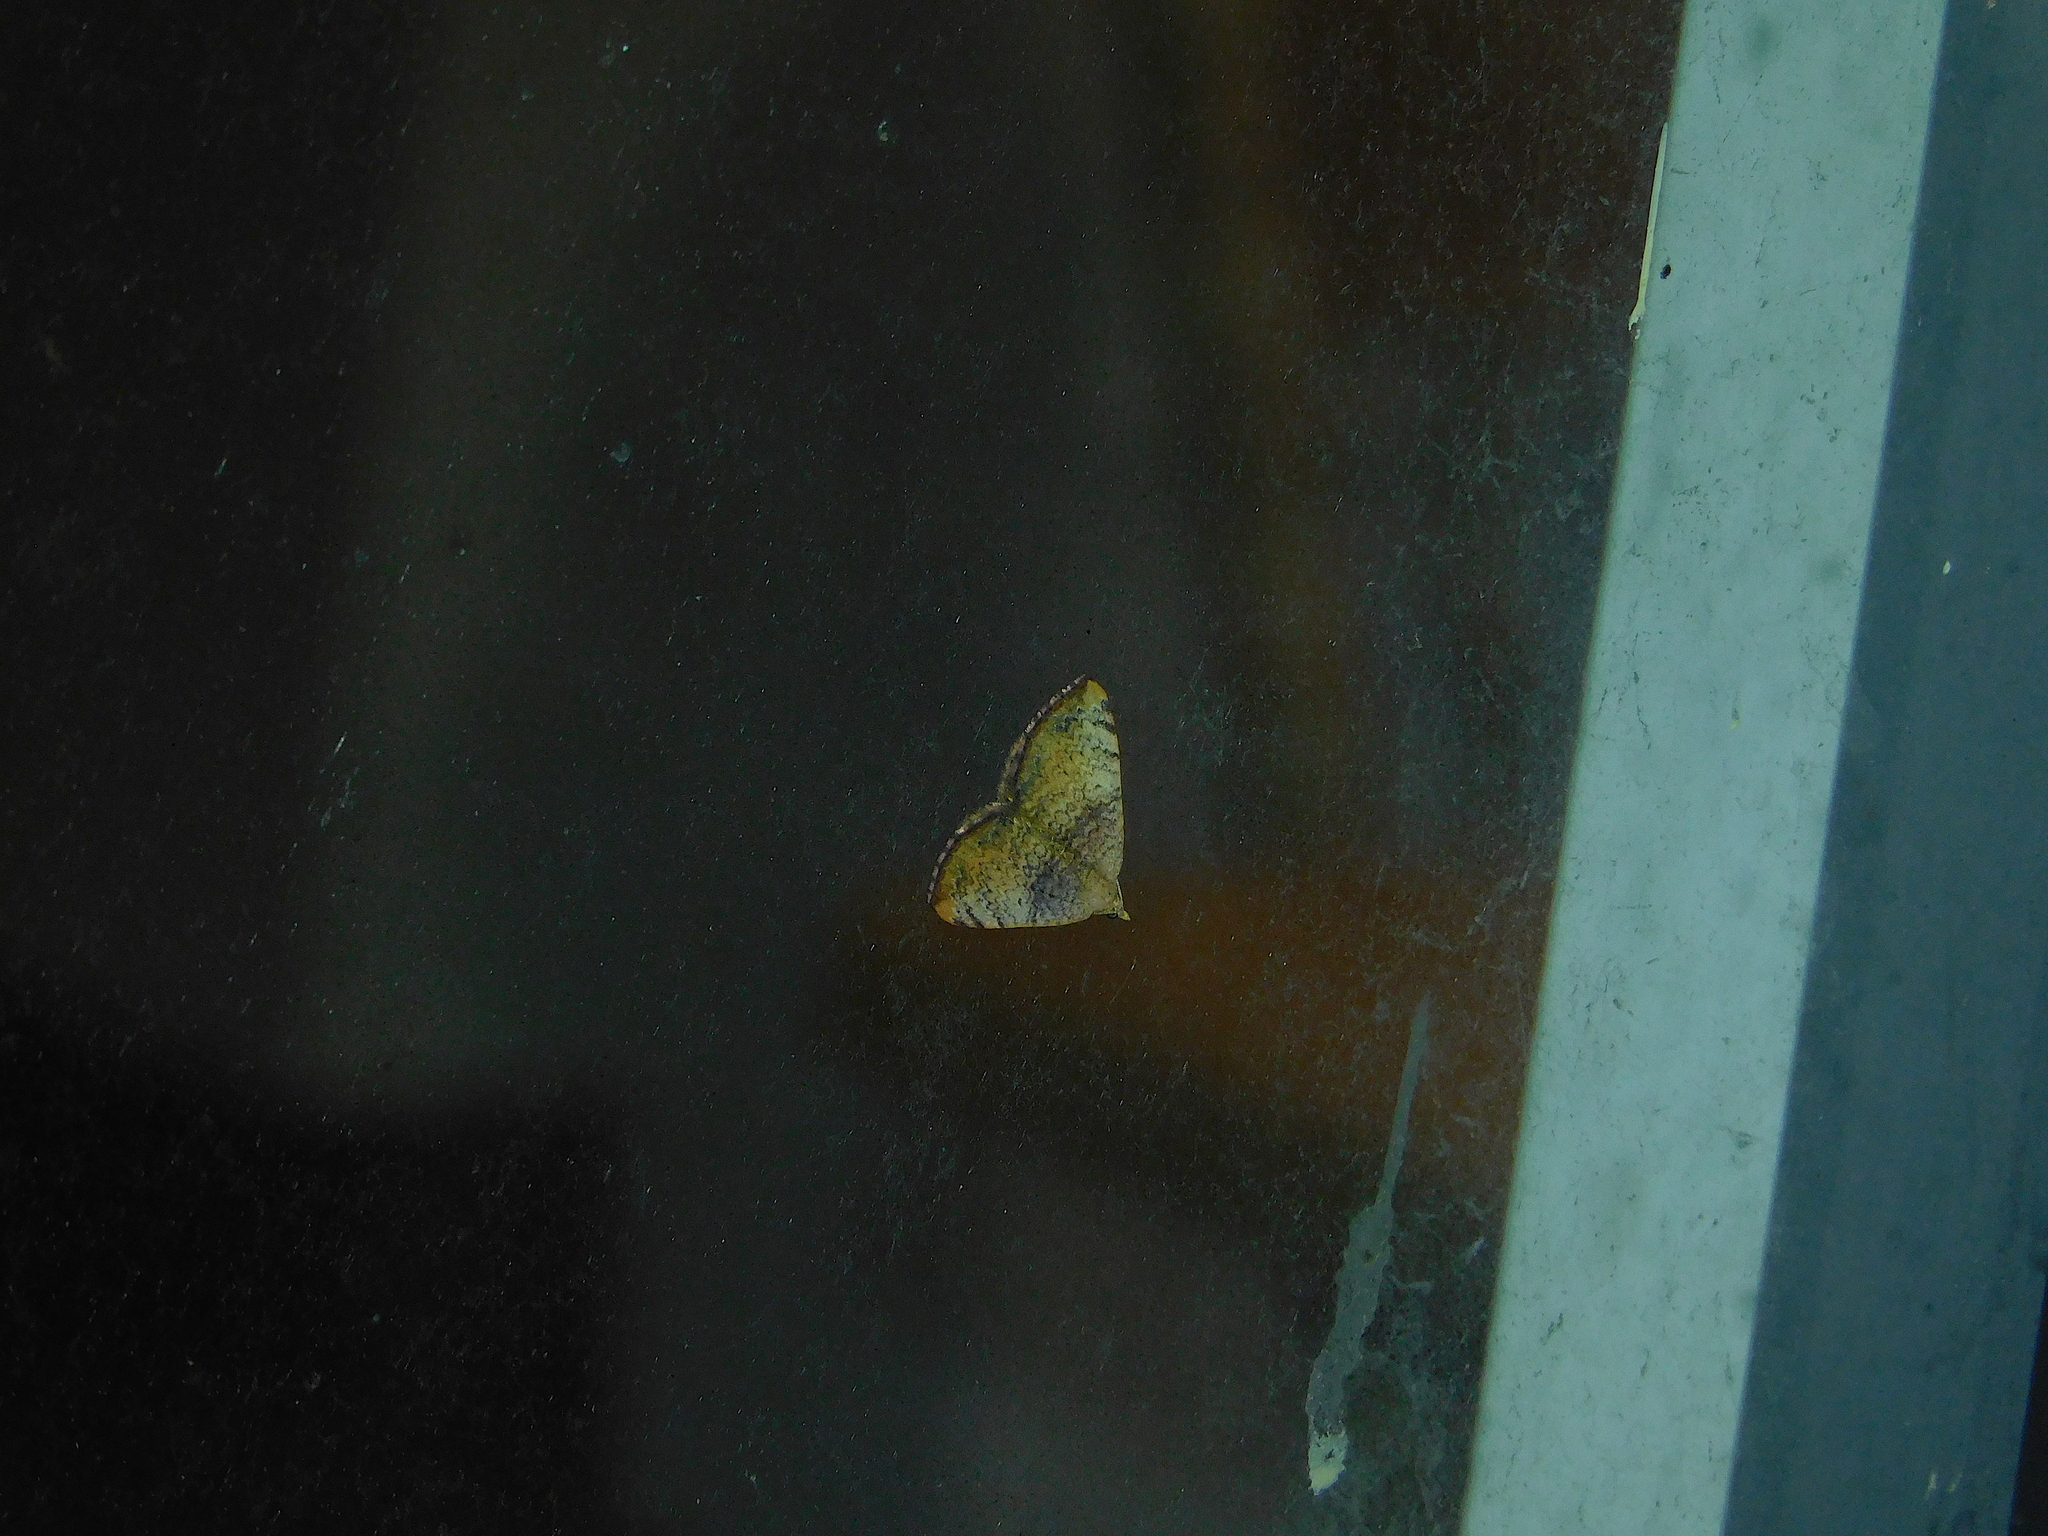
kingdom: Animalia
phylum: Arthropoda
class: Insecta
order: Lepidoptera
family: Geometridae
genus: Chrysolarentia
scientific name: Chrysolarentia mecynata
